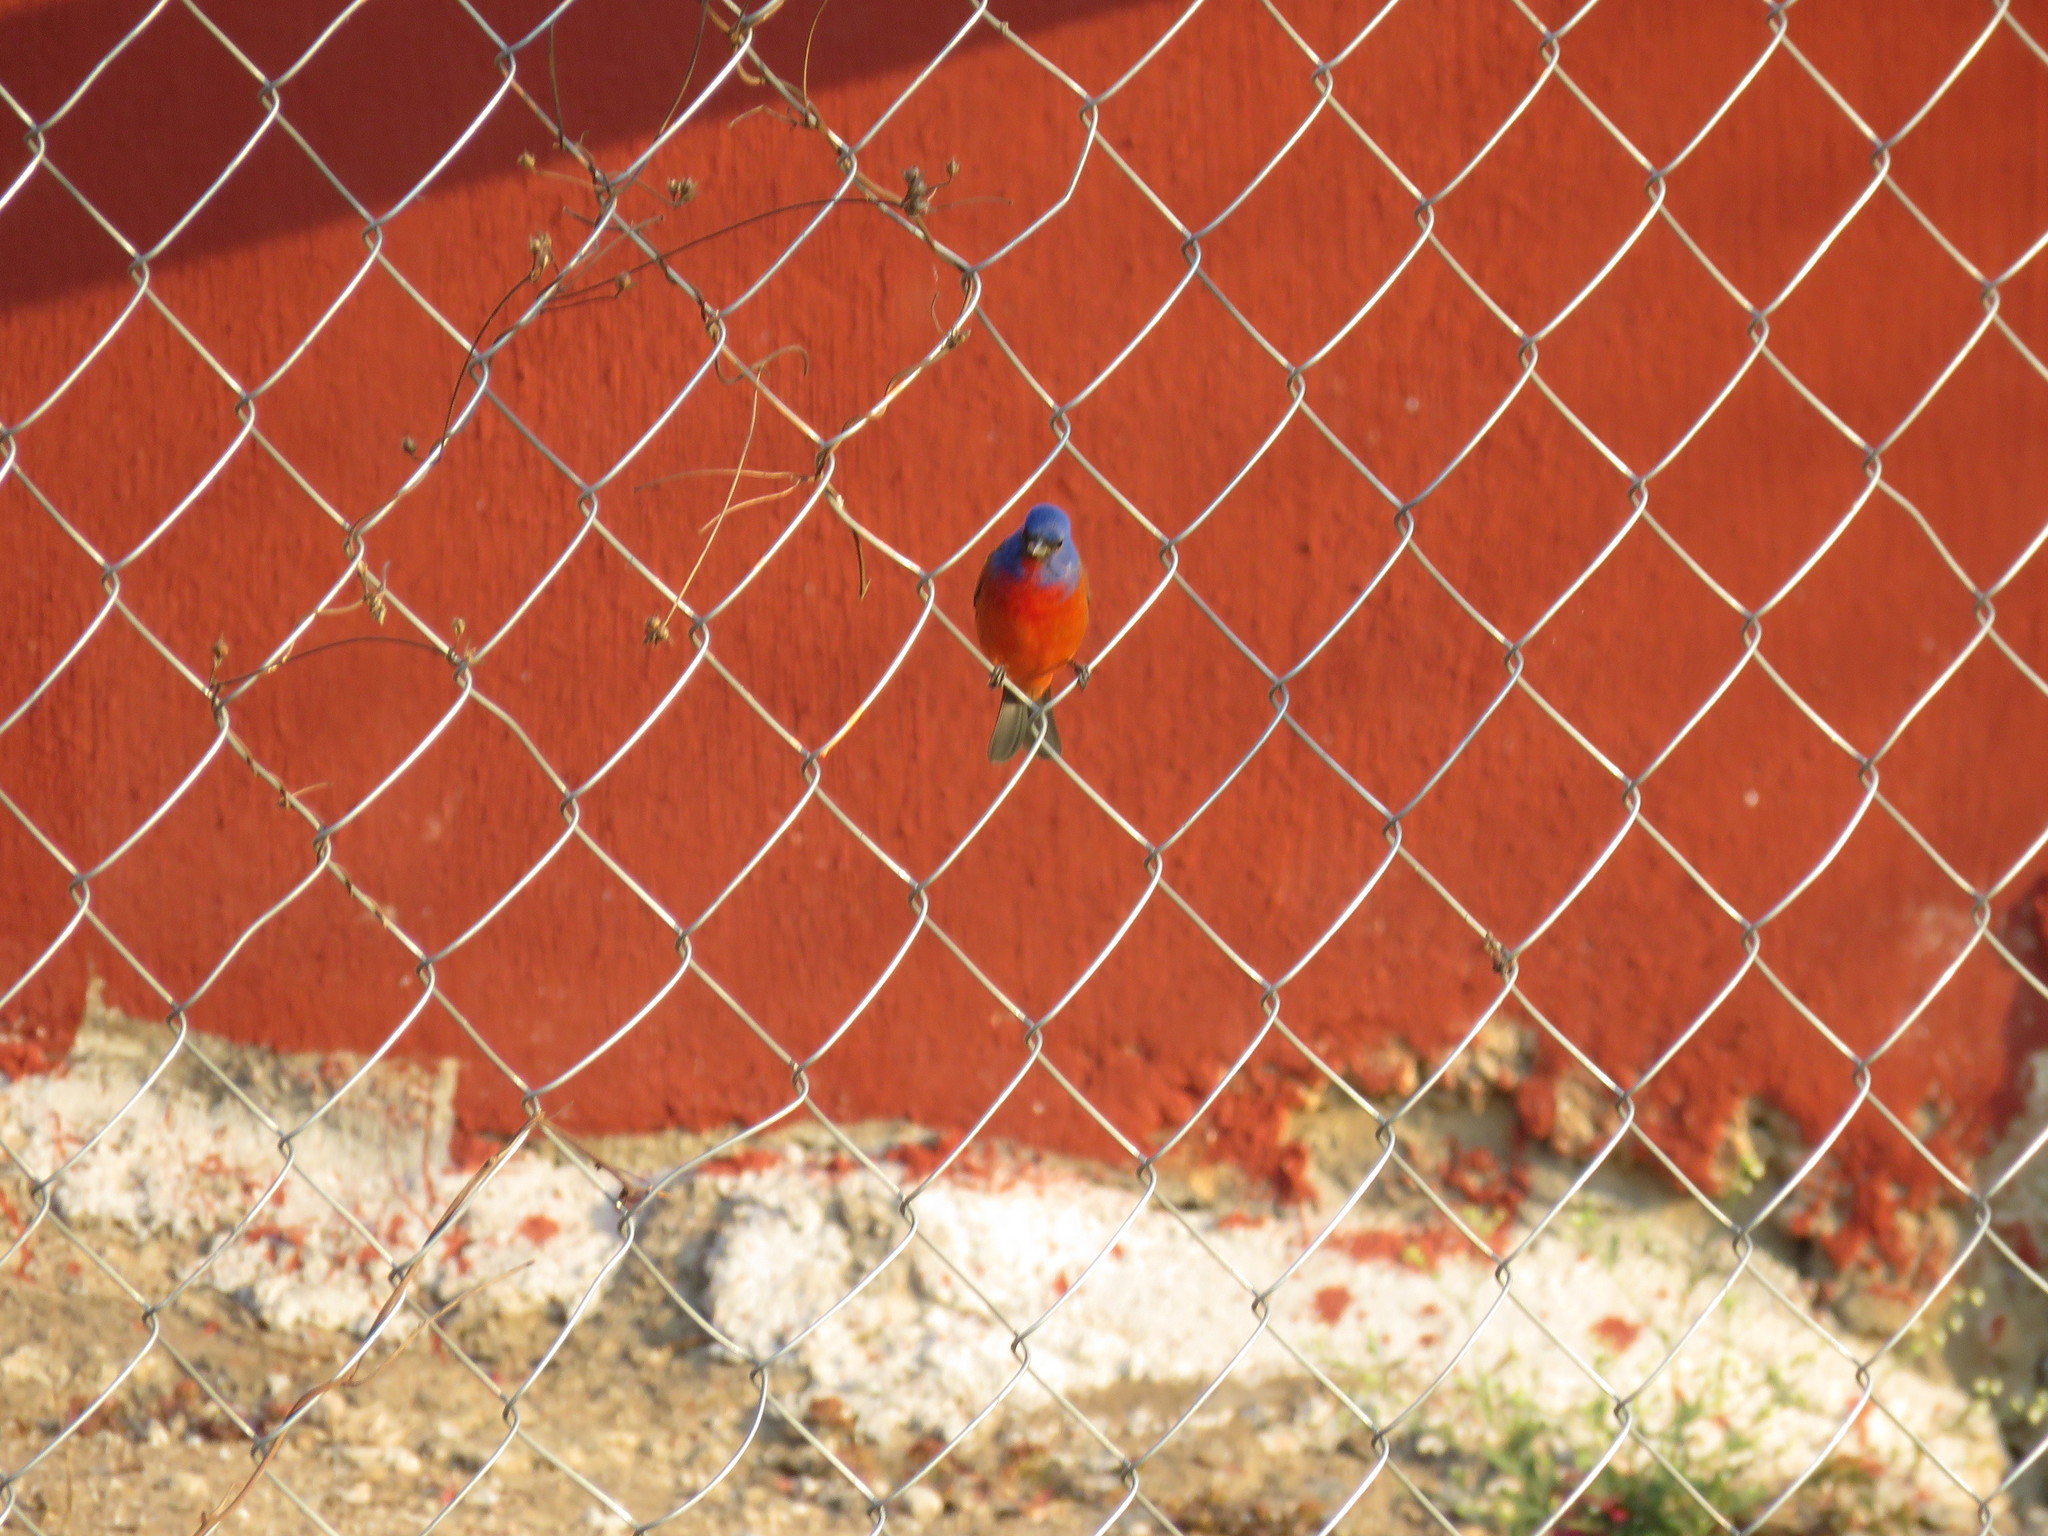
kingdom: Animalia
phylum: Chordata
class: Aves
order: Passeriformes
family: Cardinalidae
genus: Passerina
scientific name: Passerina ciris
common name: Painted bunting
